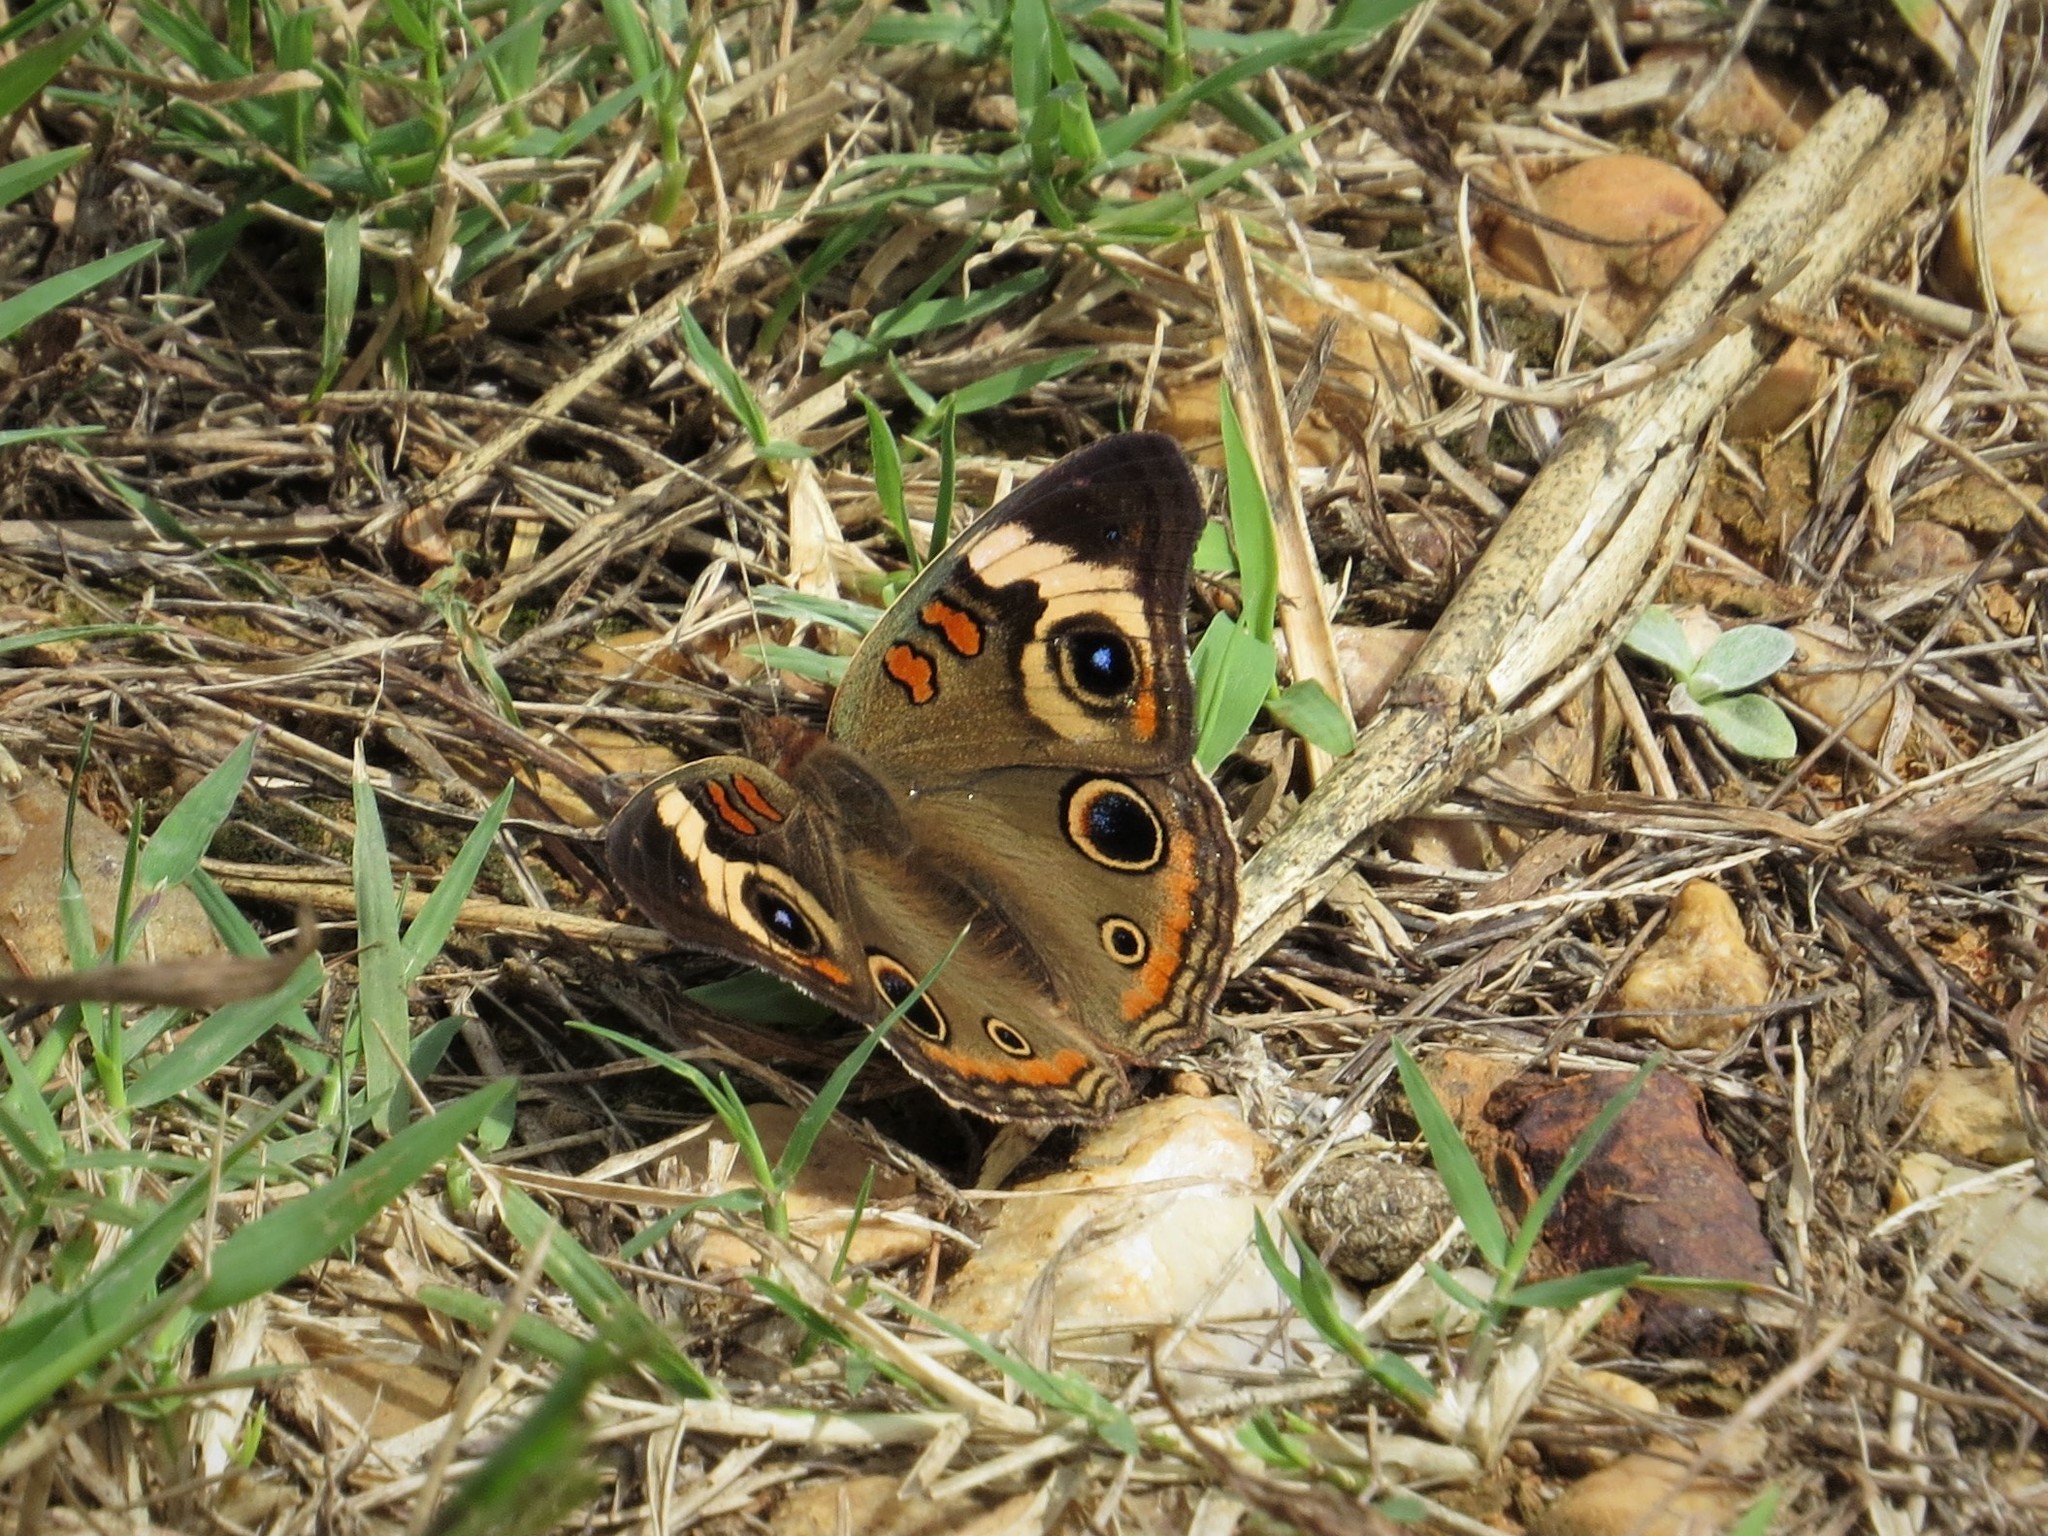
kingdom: Animalia
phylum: Arthropoda
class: Insecta
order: Lepidoptera
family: Nymphalidae
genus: Junonia
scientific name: Junonia coenia
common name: Common buckeye
